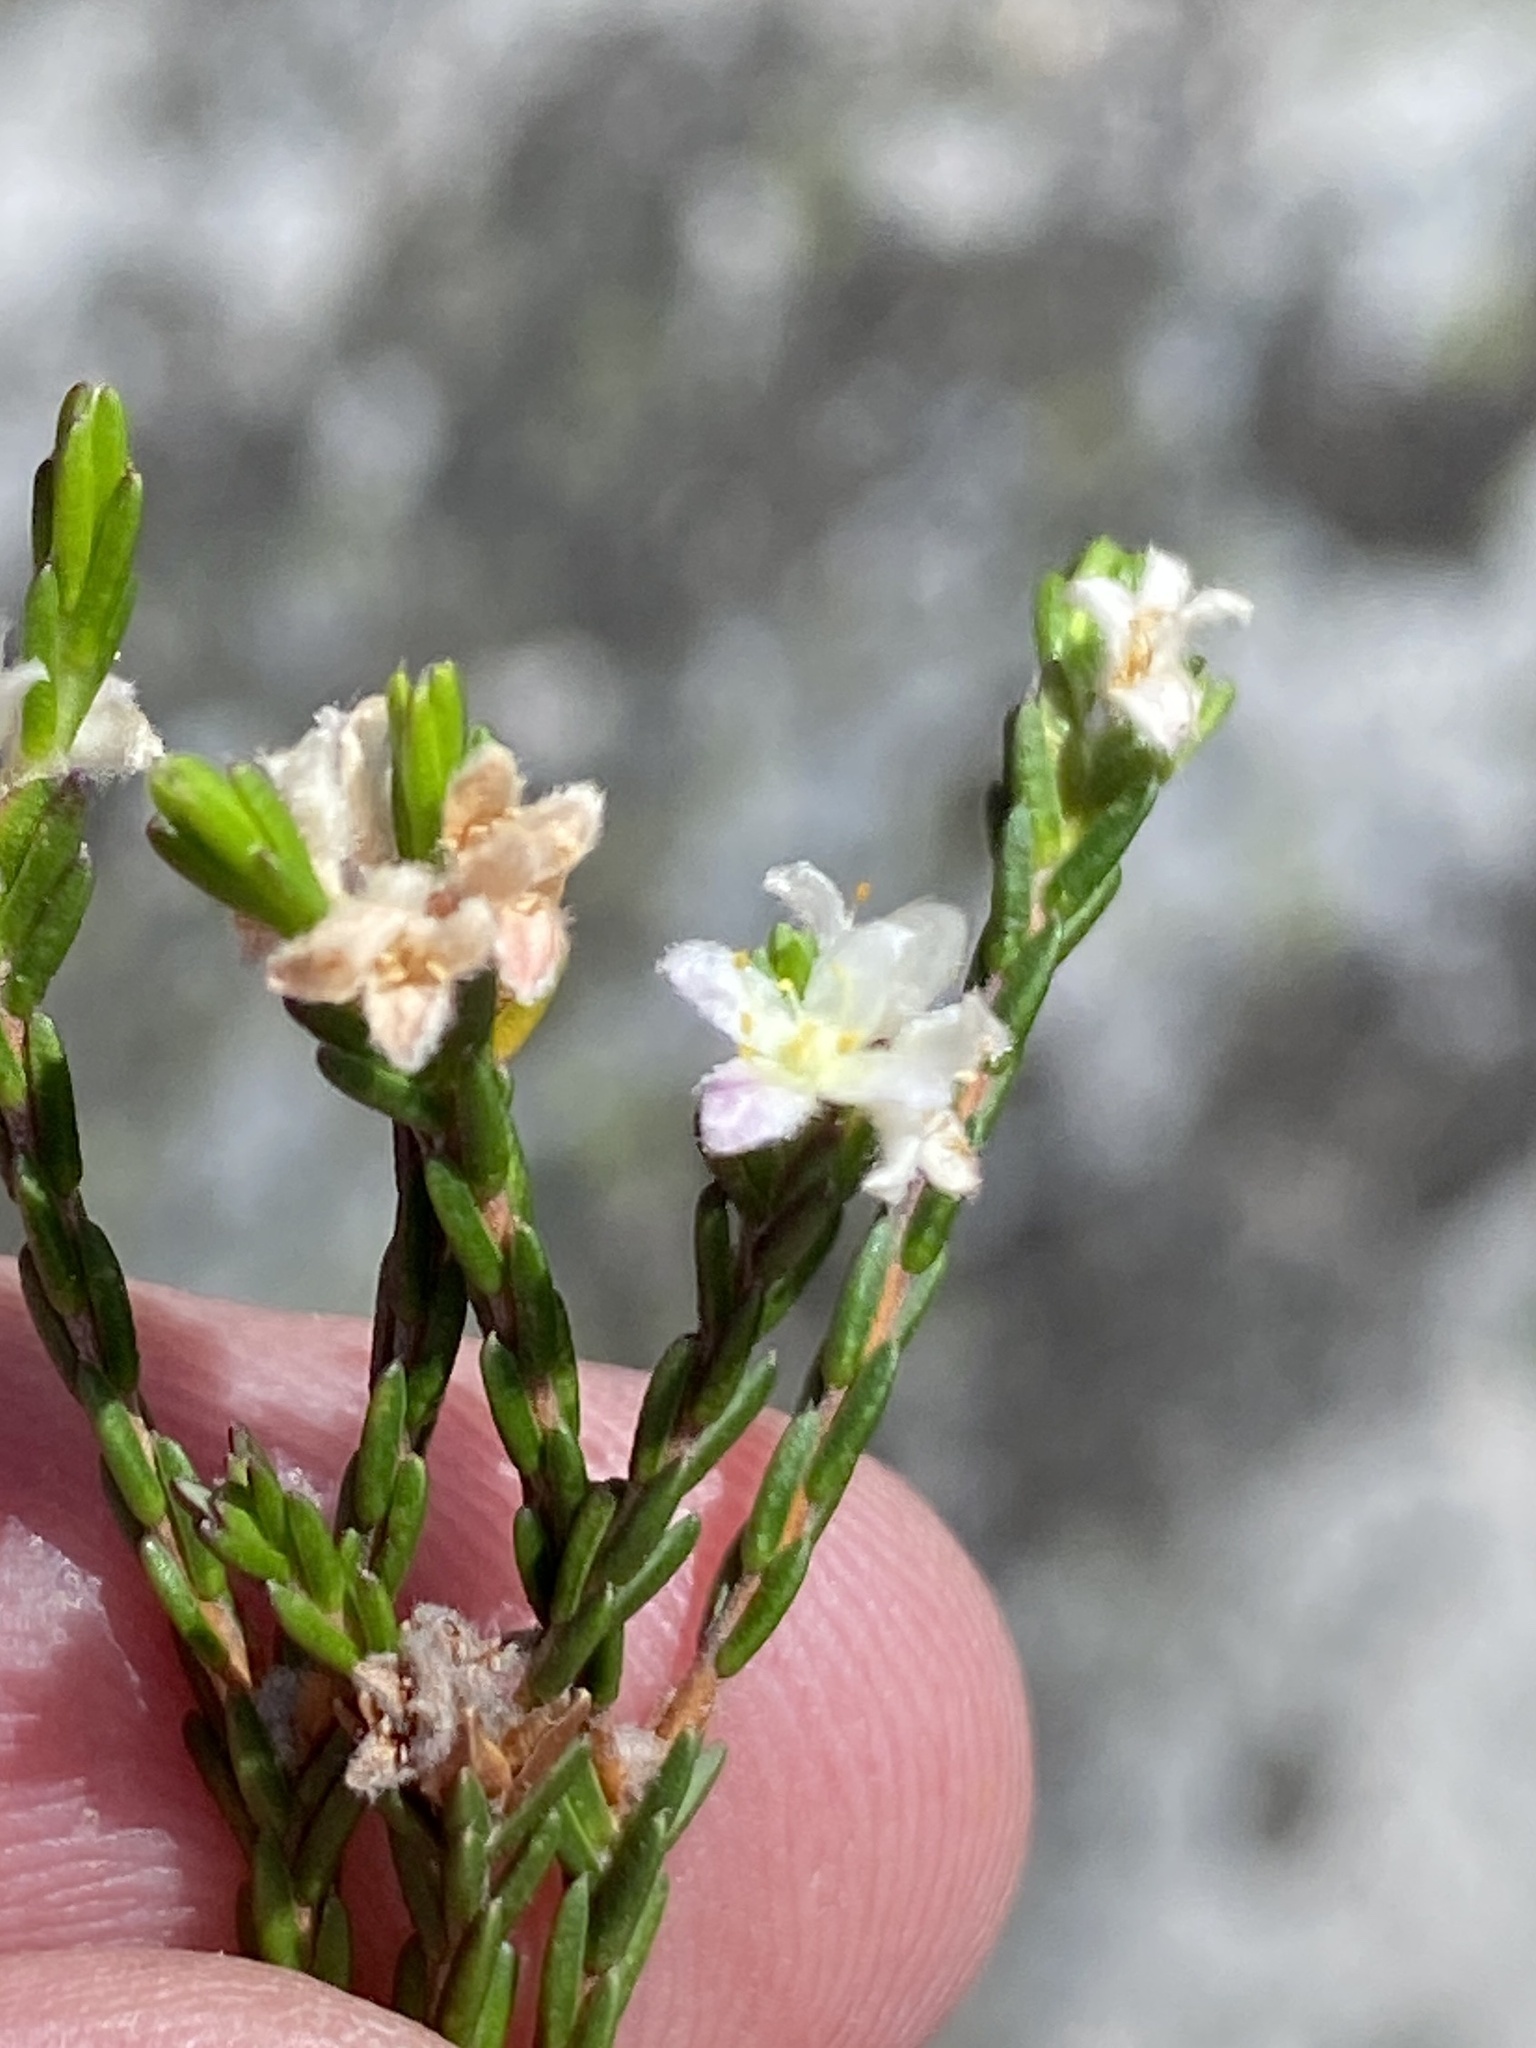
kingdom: Plantae
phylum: Tracheophyta
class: Magnoliopsida
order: Malvales
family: Thymelaeaceae
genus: Lachnaea
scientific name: Lachnaea laniflora
